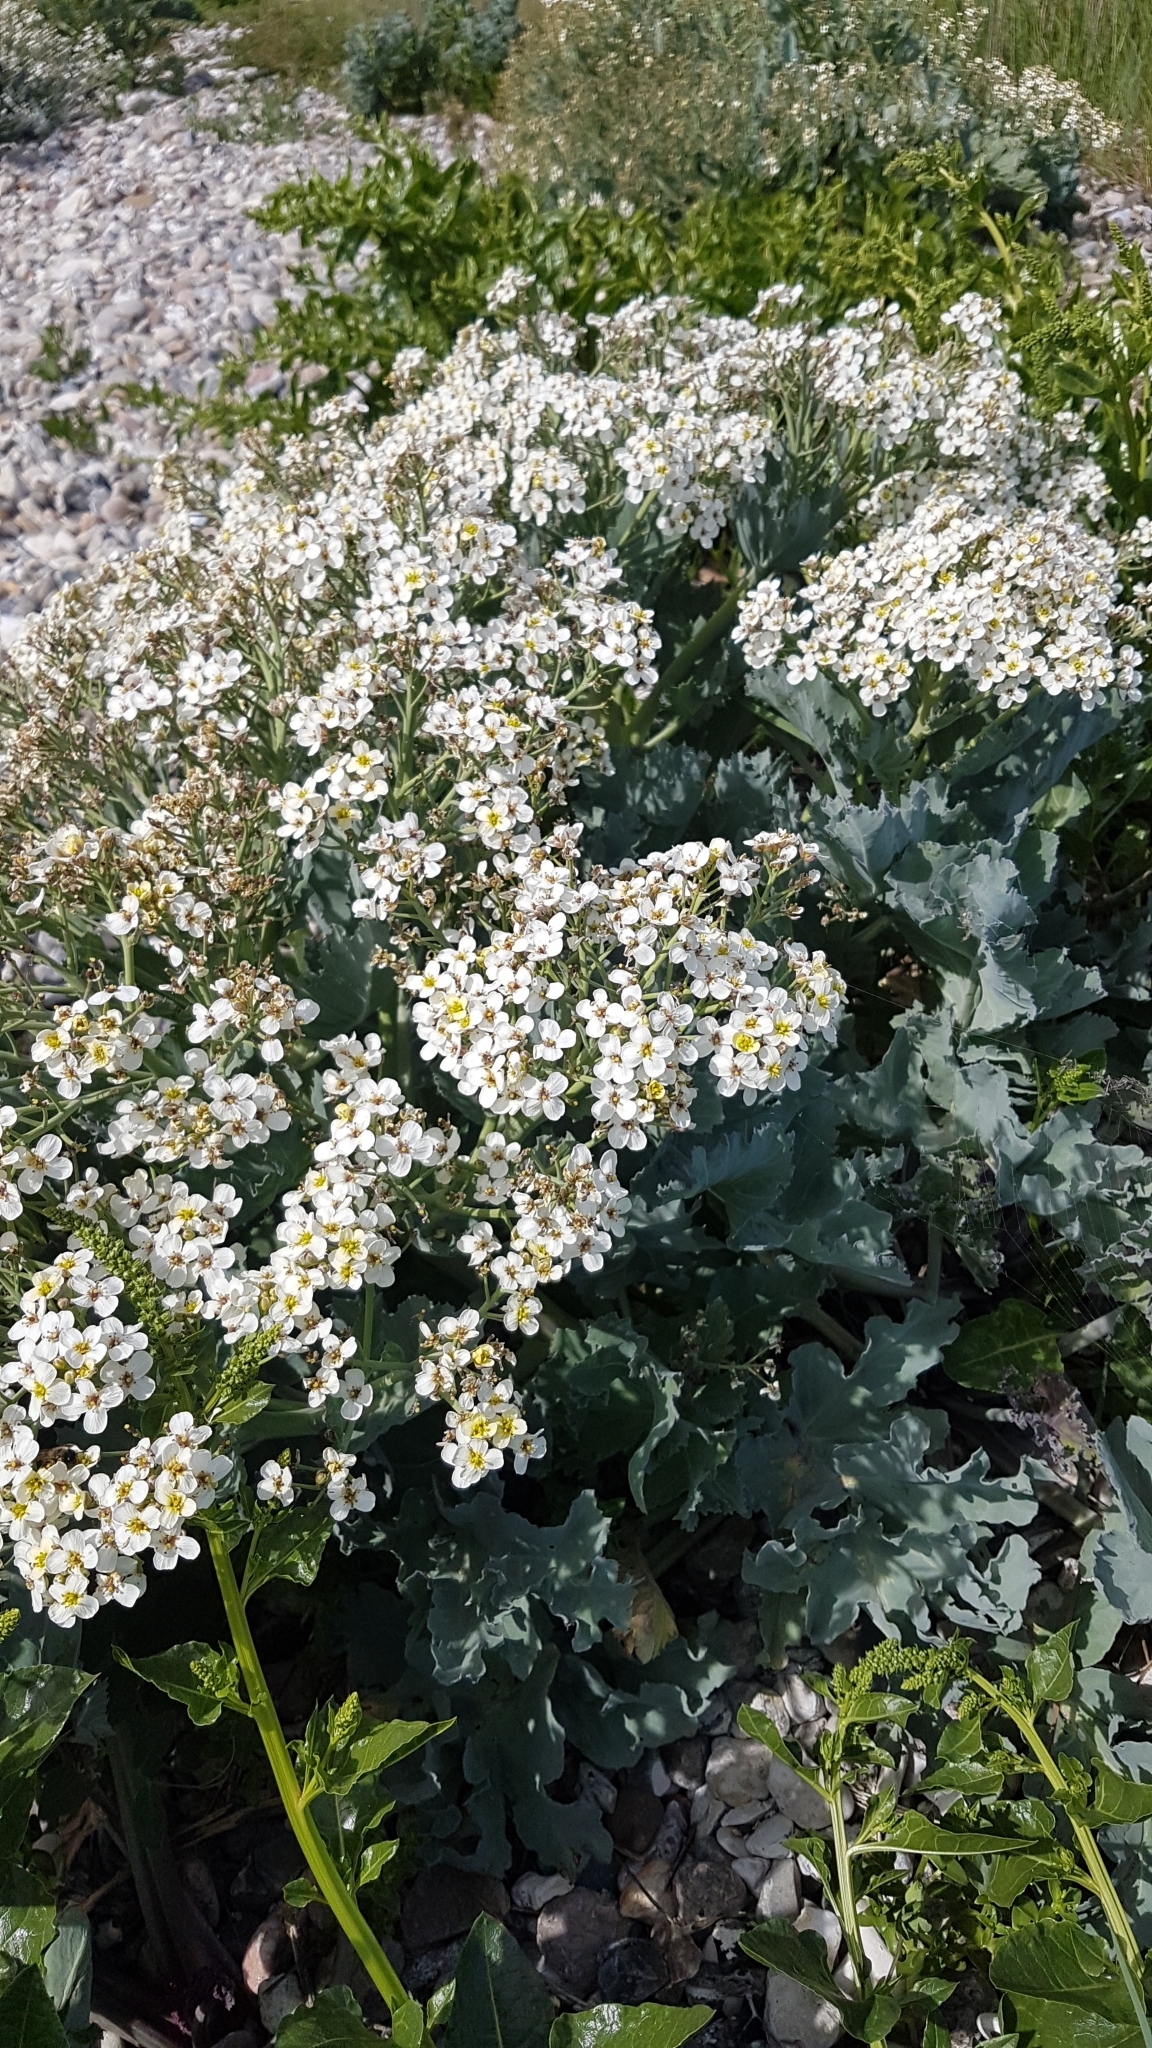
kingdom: Plantae
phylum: Tracheophyta
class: Magnoliopsida
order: Brassicales
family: Brassicaceae
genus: Crambe
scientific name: Crambe maritima
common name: Sea-kale
